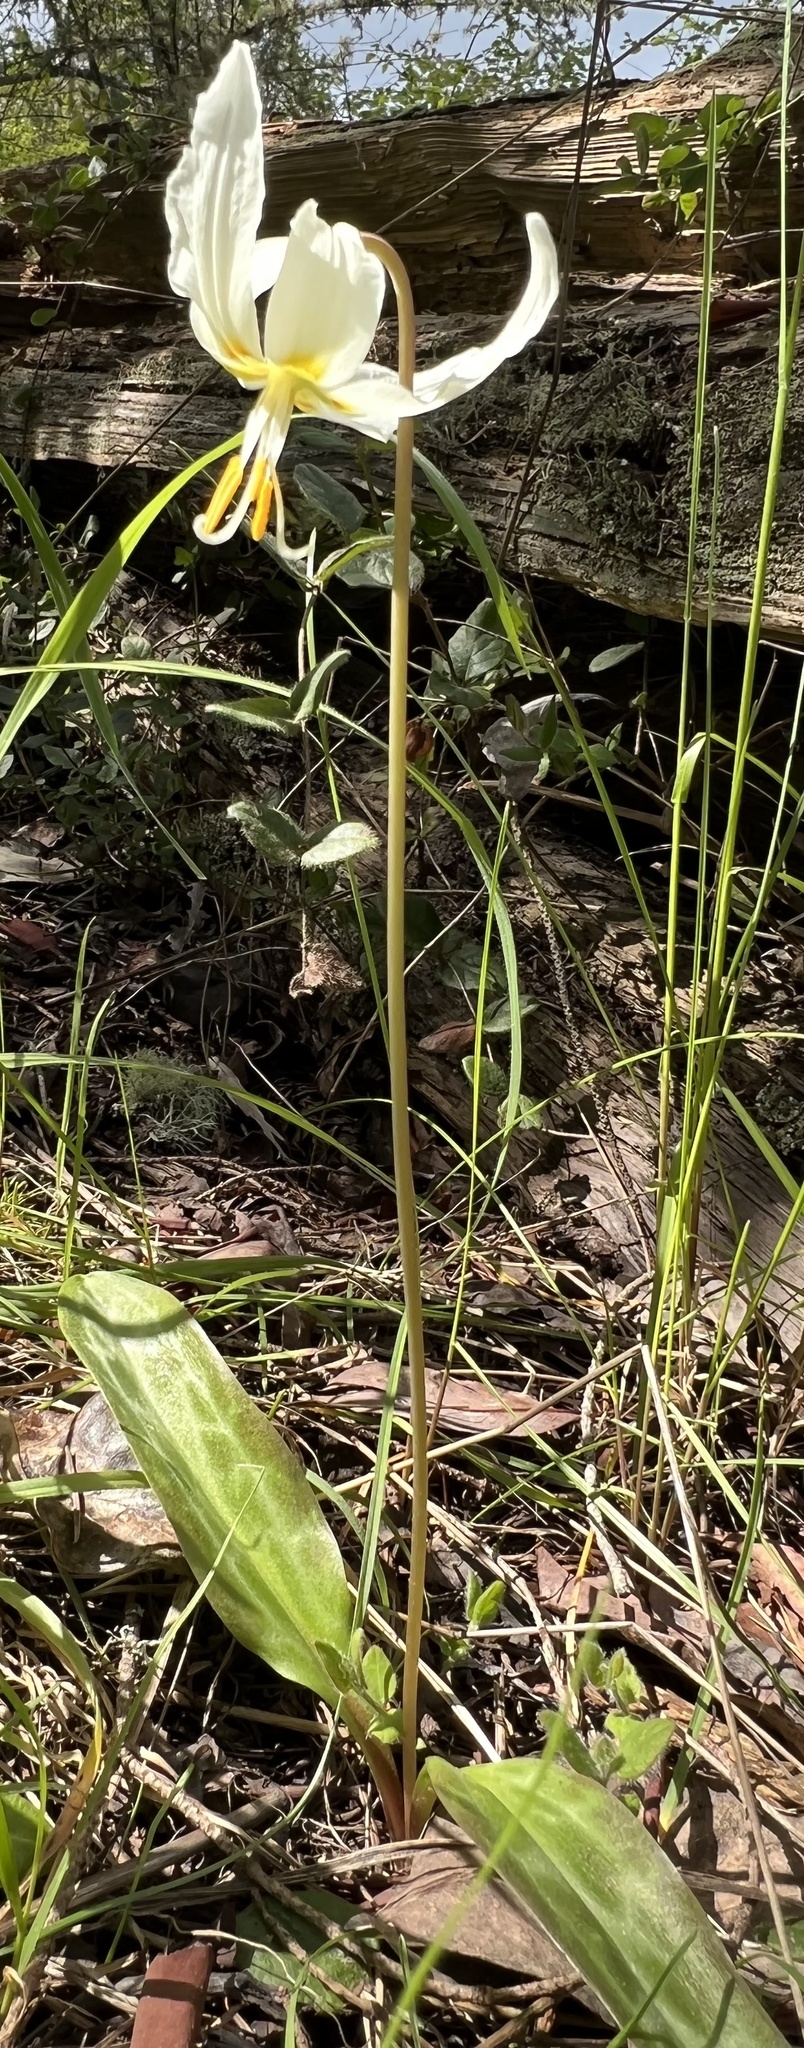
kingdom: Plantae
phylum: Tracheophyta
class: Liliopsida
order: Liliales
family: Liliaceae
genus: Erythronium
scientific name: Erythronium oregonum
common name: Giant adder's-tongue
